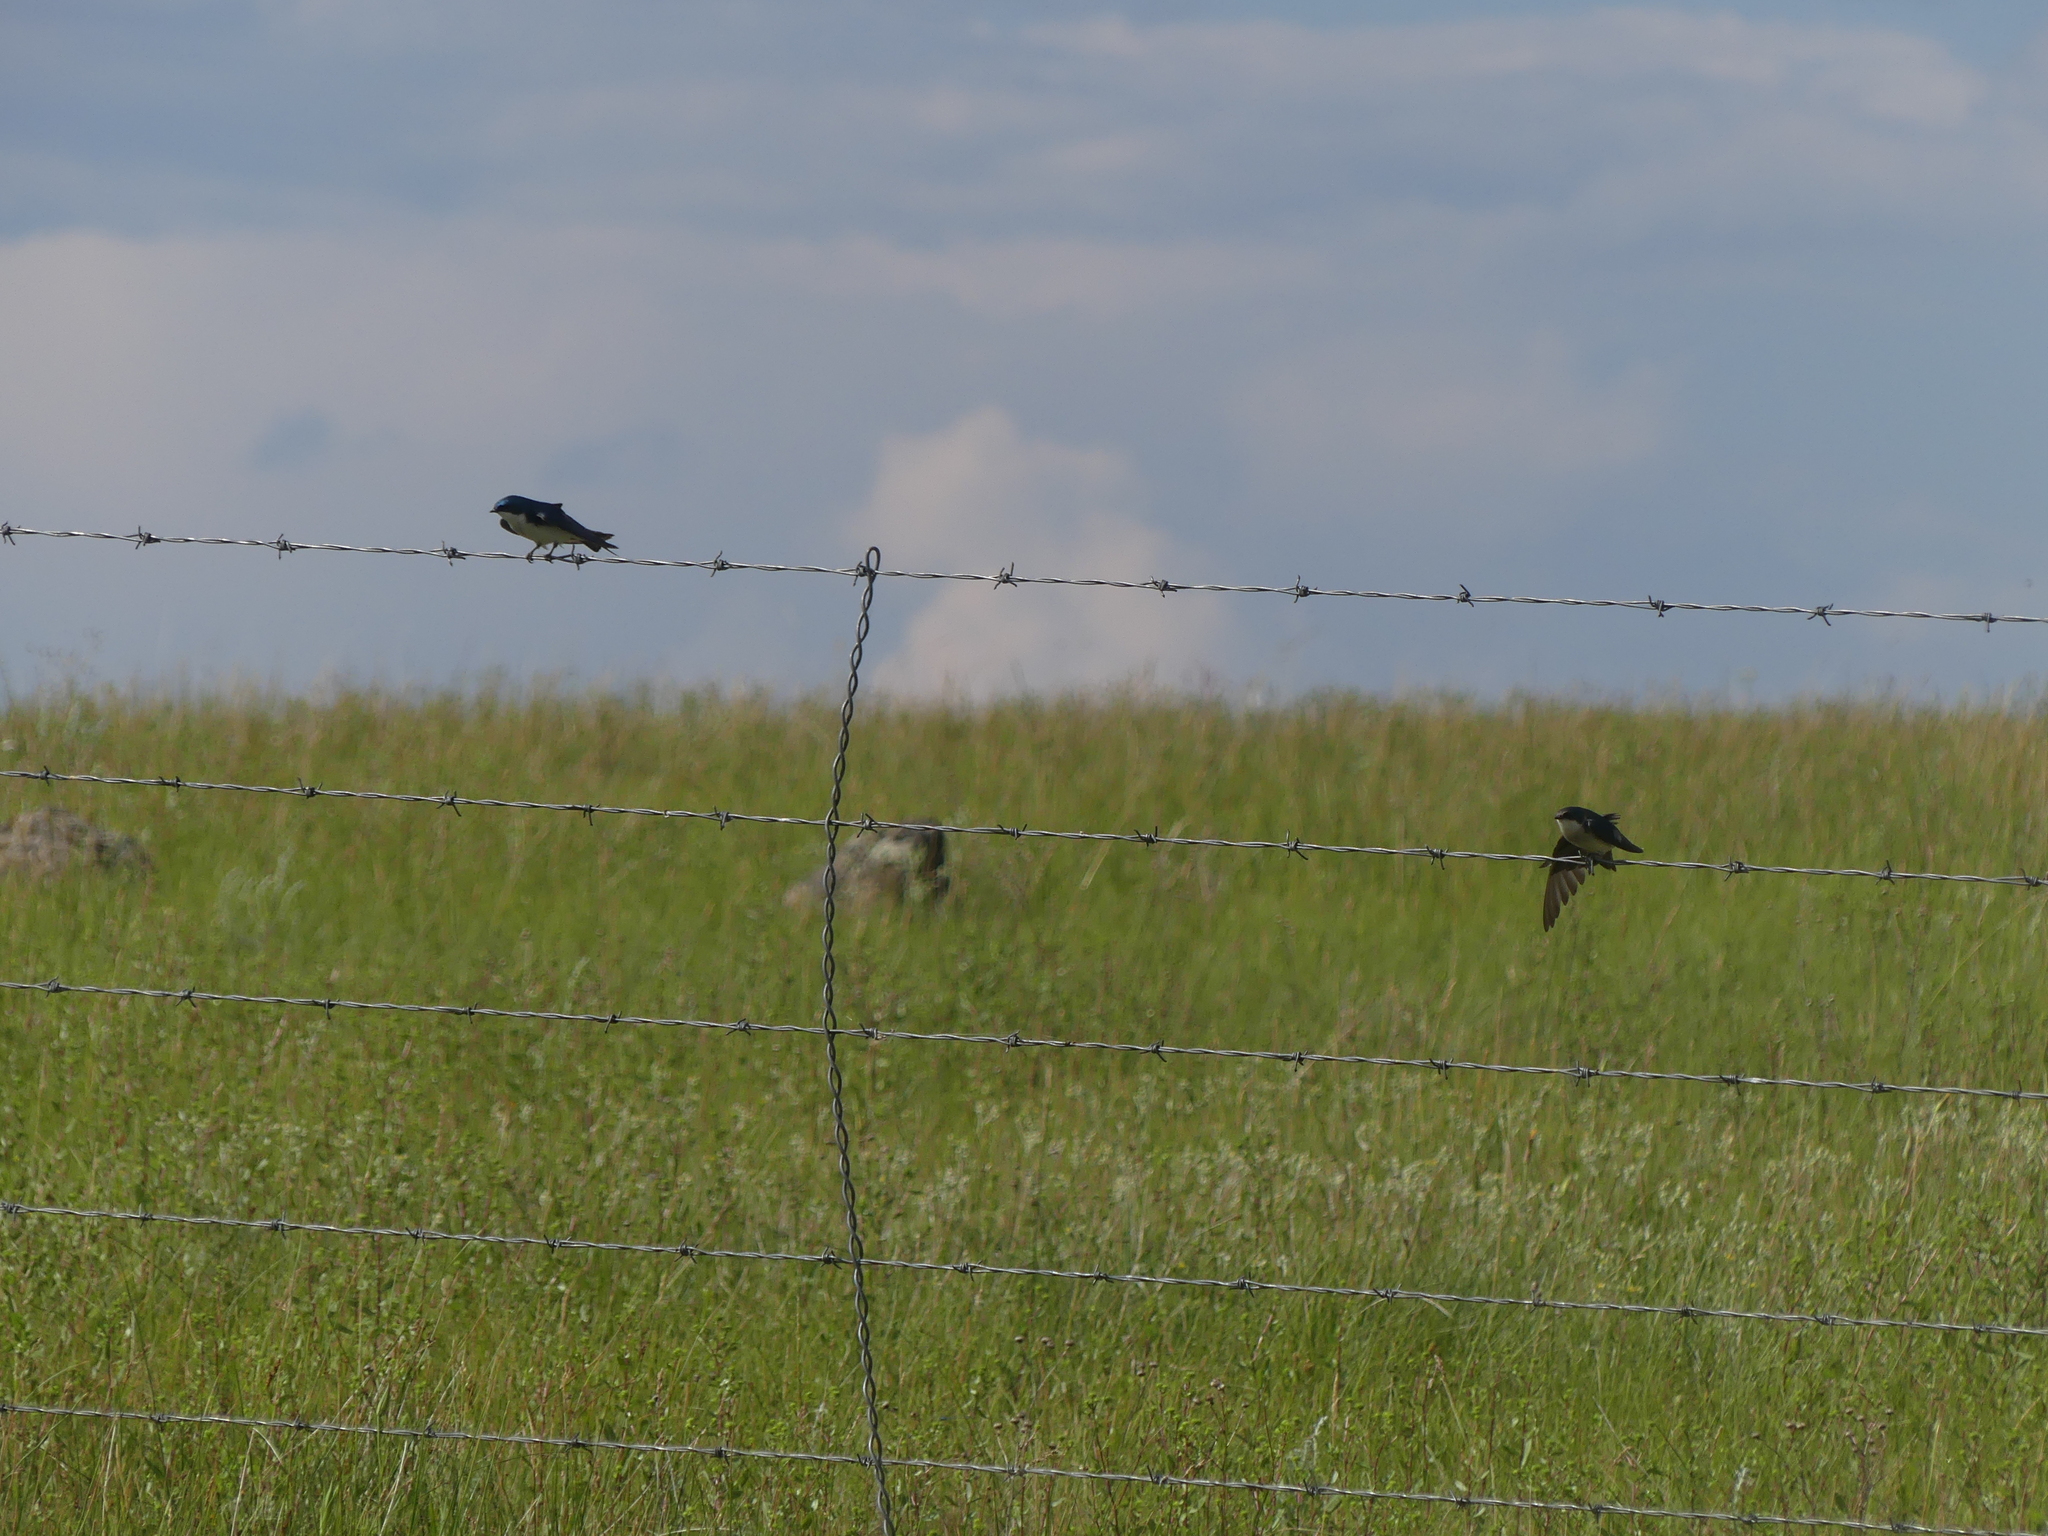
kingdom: Animalia
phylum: Chordata
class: Aves
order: Passeriformes
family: Hirundinidae
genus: Tachycineta
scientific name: Tachycineta bicolor
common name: Tree swallow
